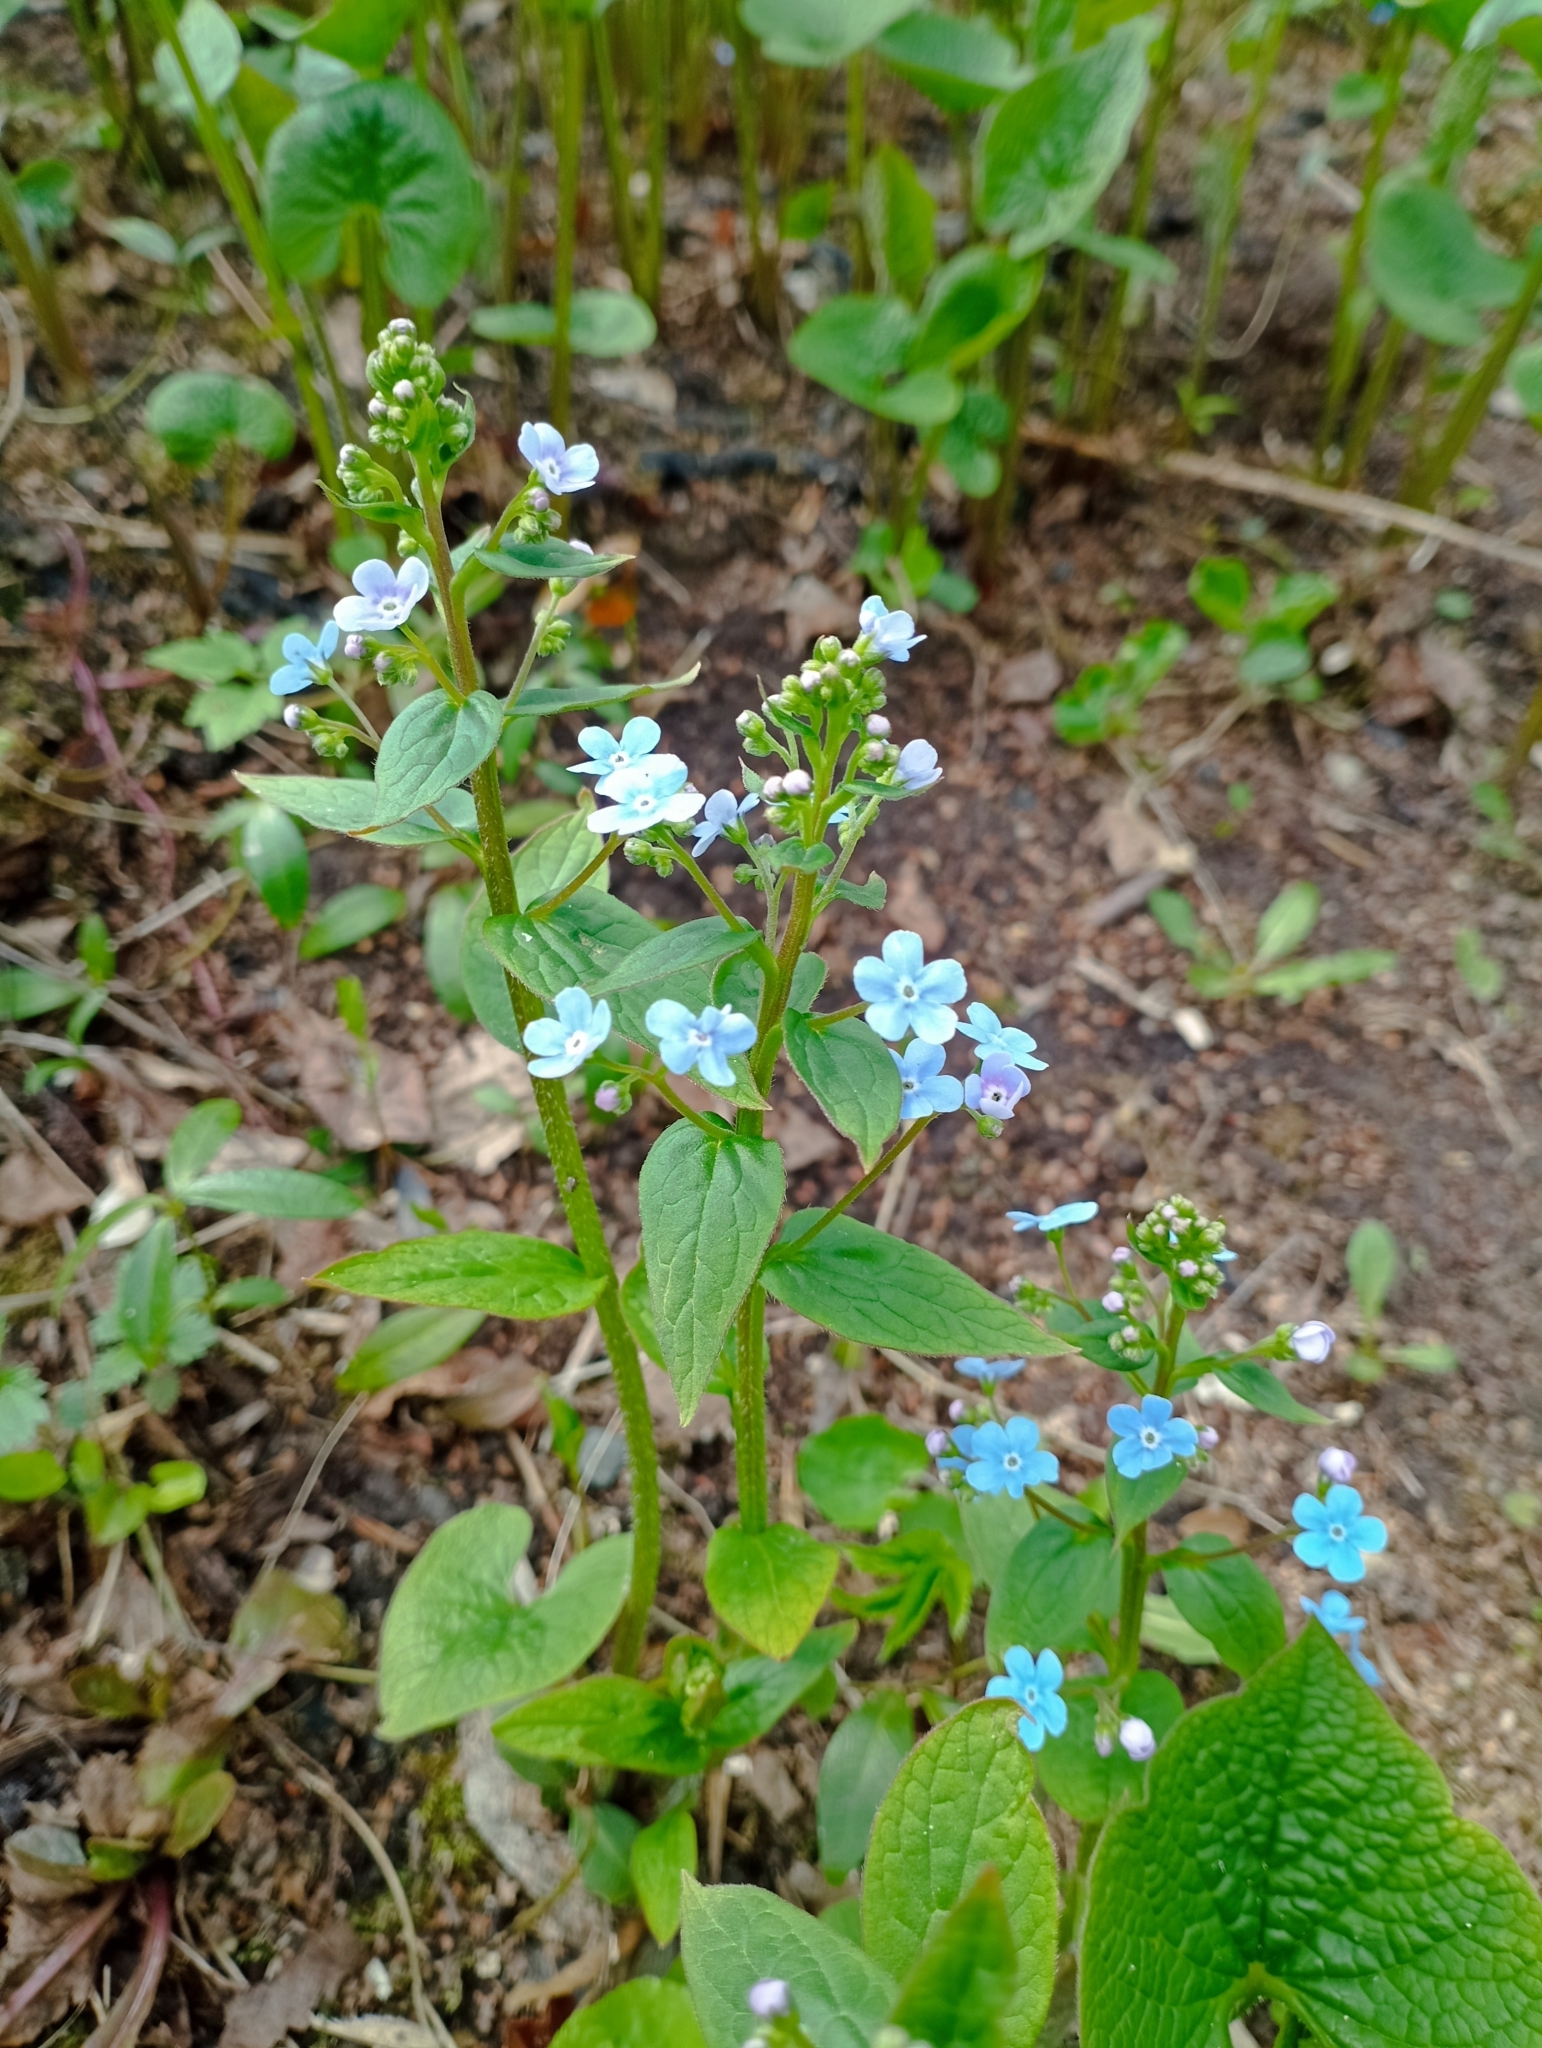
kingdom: Plantae
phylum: Tracheophyta
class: Magnoliopsida
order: Boraginales
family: Boraginaceae
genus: Brunnera
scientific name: Brunnera sibirica
